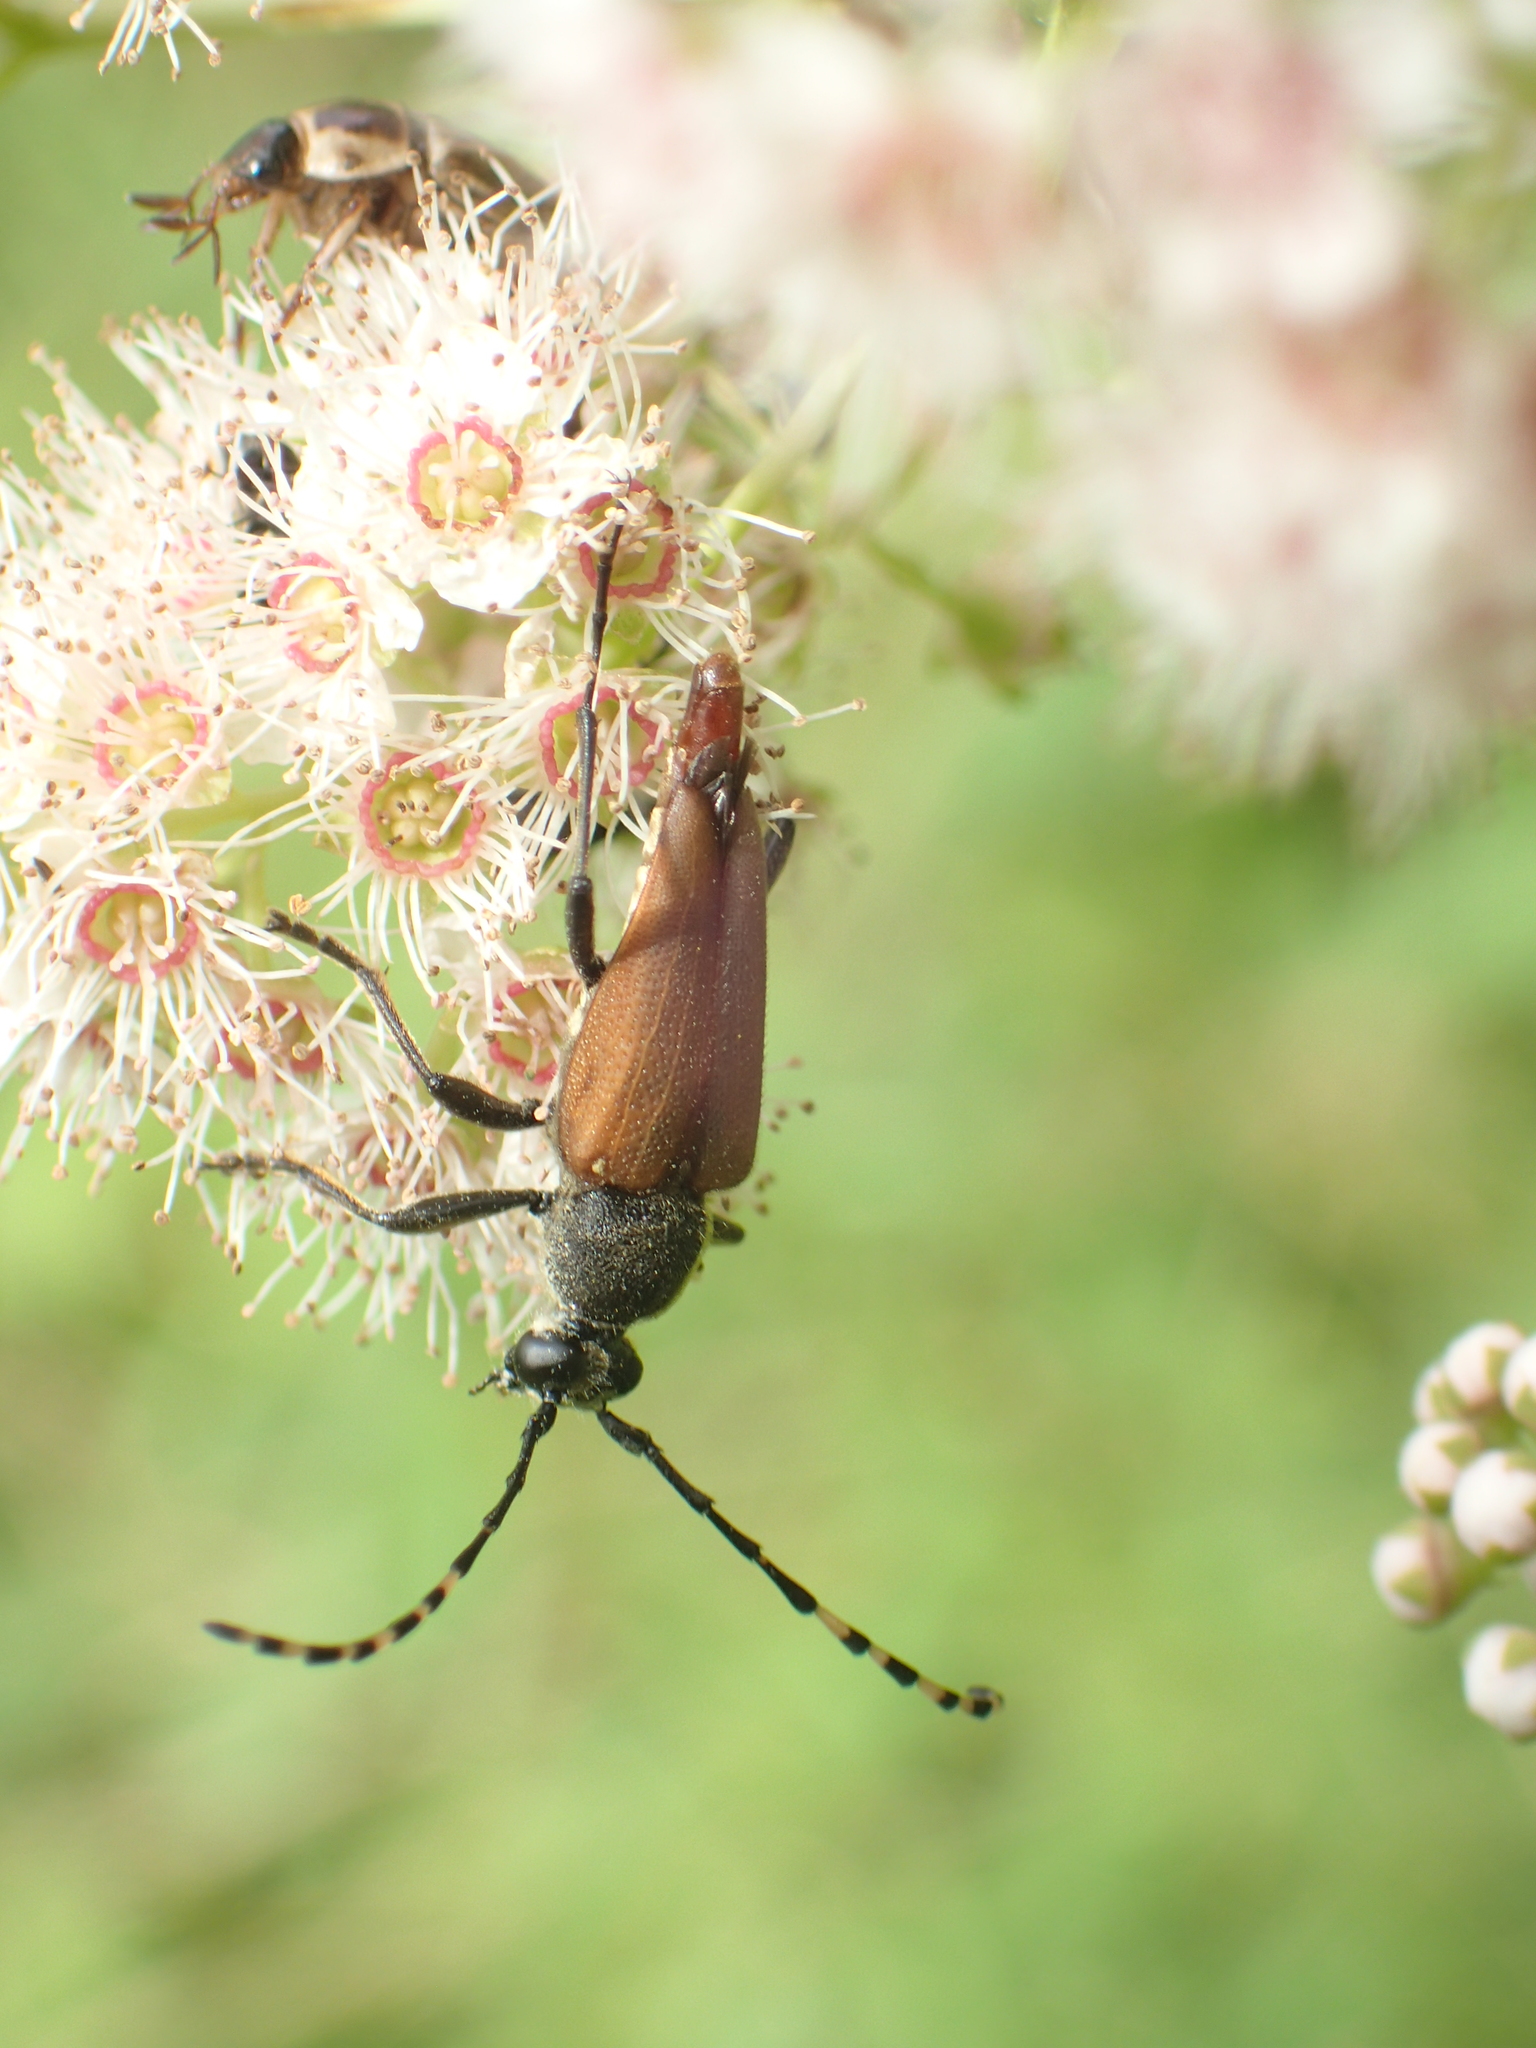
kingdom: Animalia
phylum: Arthropoda
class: Insecta
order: Coleoptera
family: Cerambycidae
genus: Brachyleptura
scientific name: Brachyleptura rubrica
